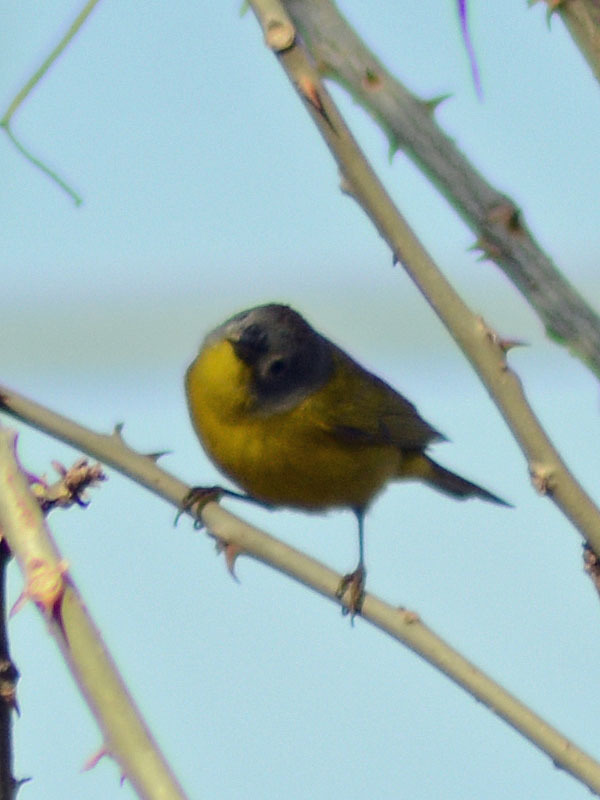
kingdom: Animalia
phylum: Chordata
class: Aves
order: Passeriformes
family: Parulidae
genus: Leiothlypis
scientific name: Leiothlypis ruficapilla
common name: Nashville warbler
